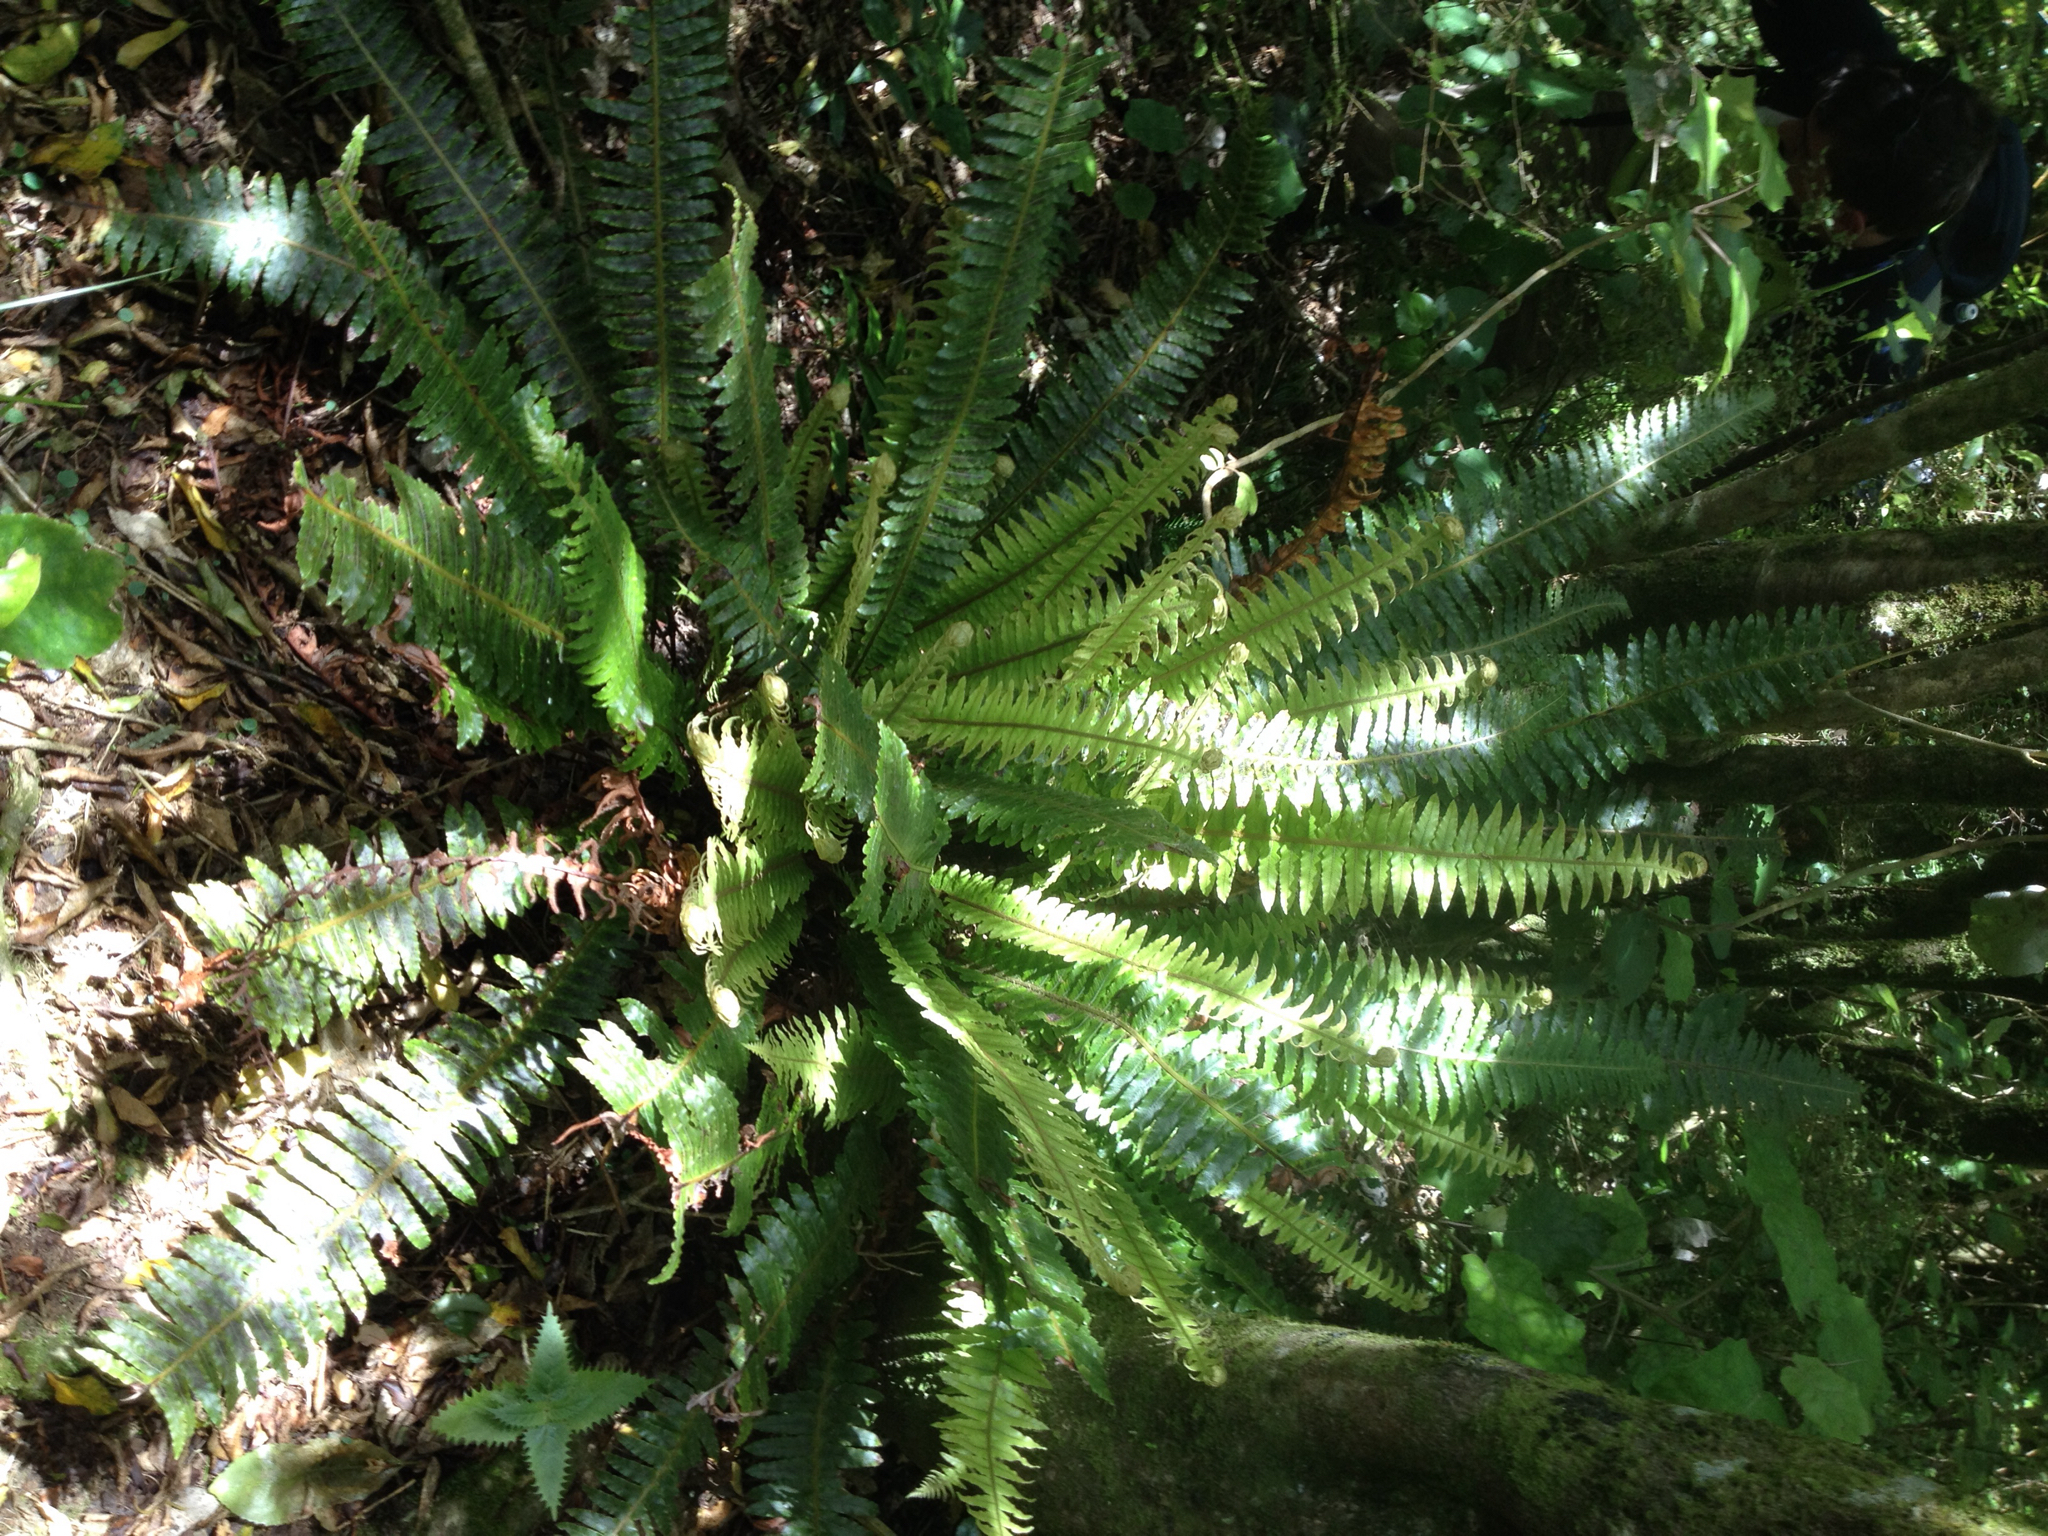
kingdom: Plantae
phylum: Tracheophyta
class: Polypodiopsida
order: Polypodiales
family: Blechnaceae
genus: Lomaria
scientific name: Lomaria discolor
